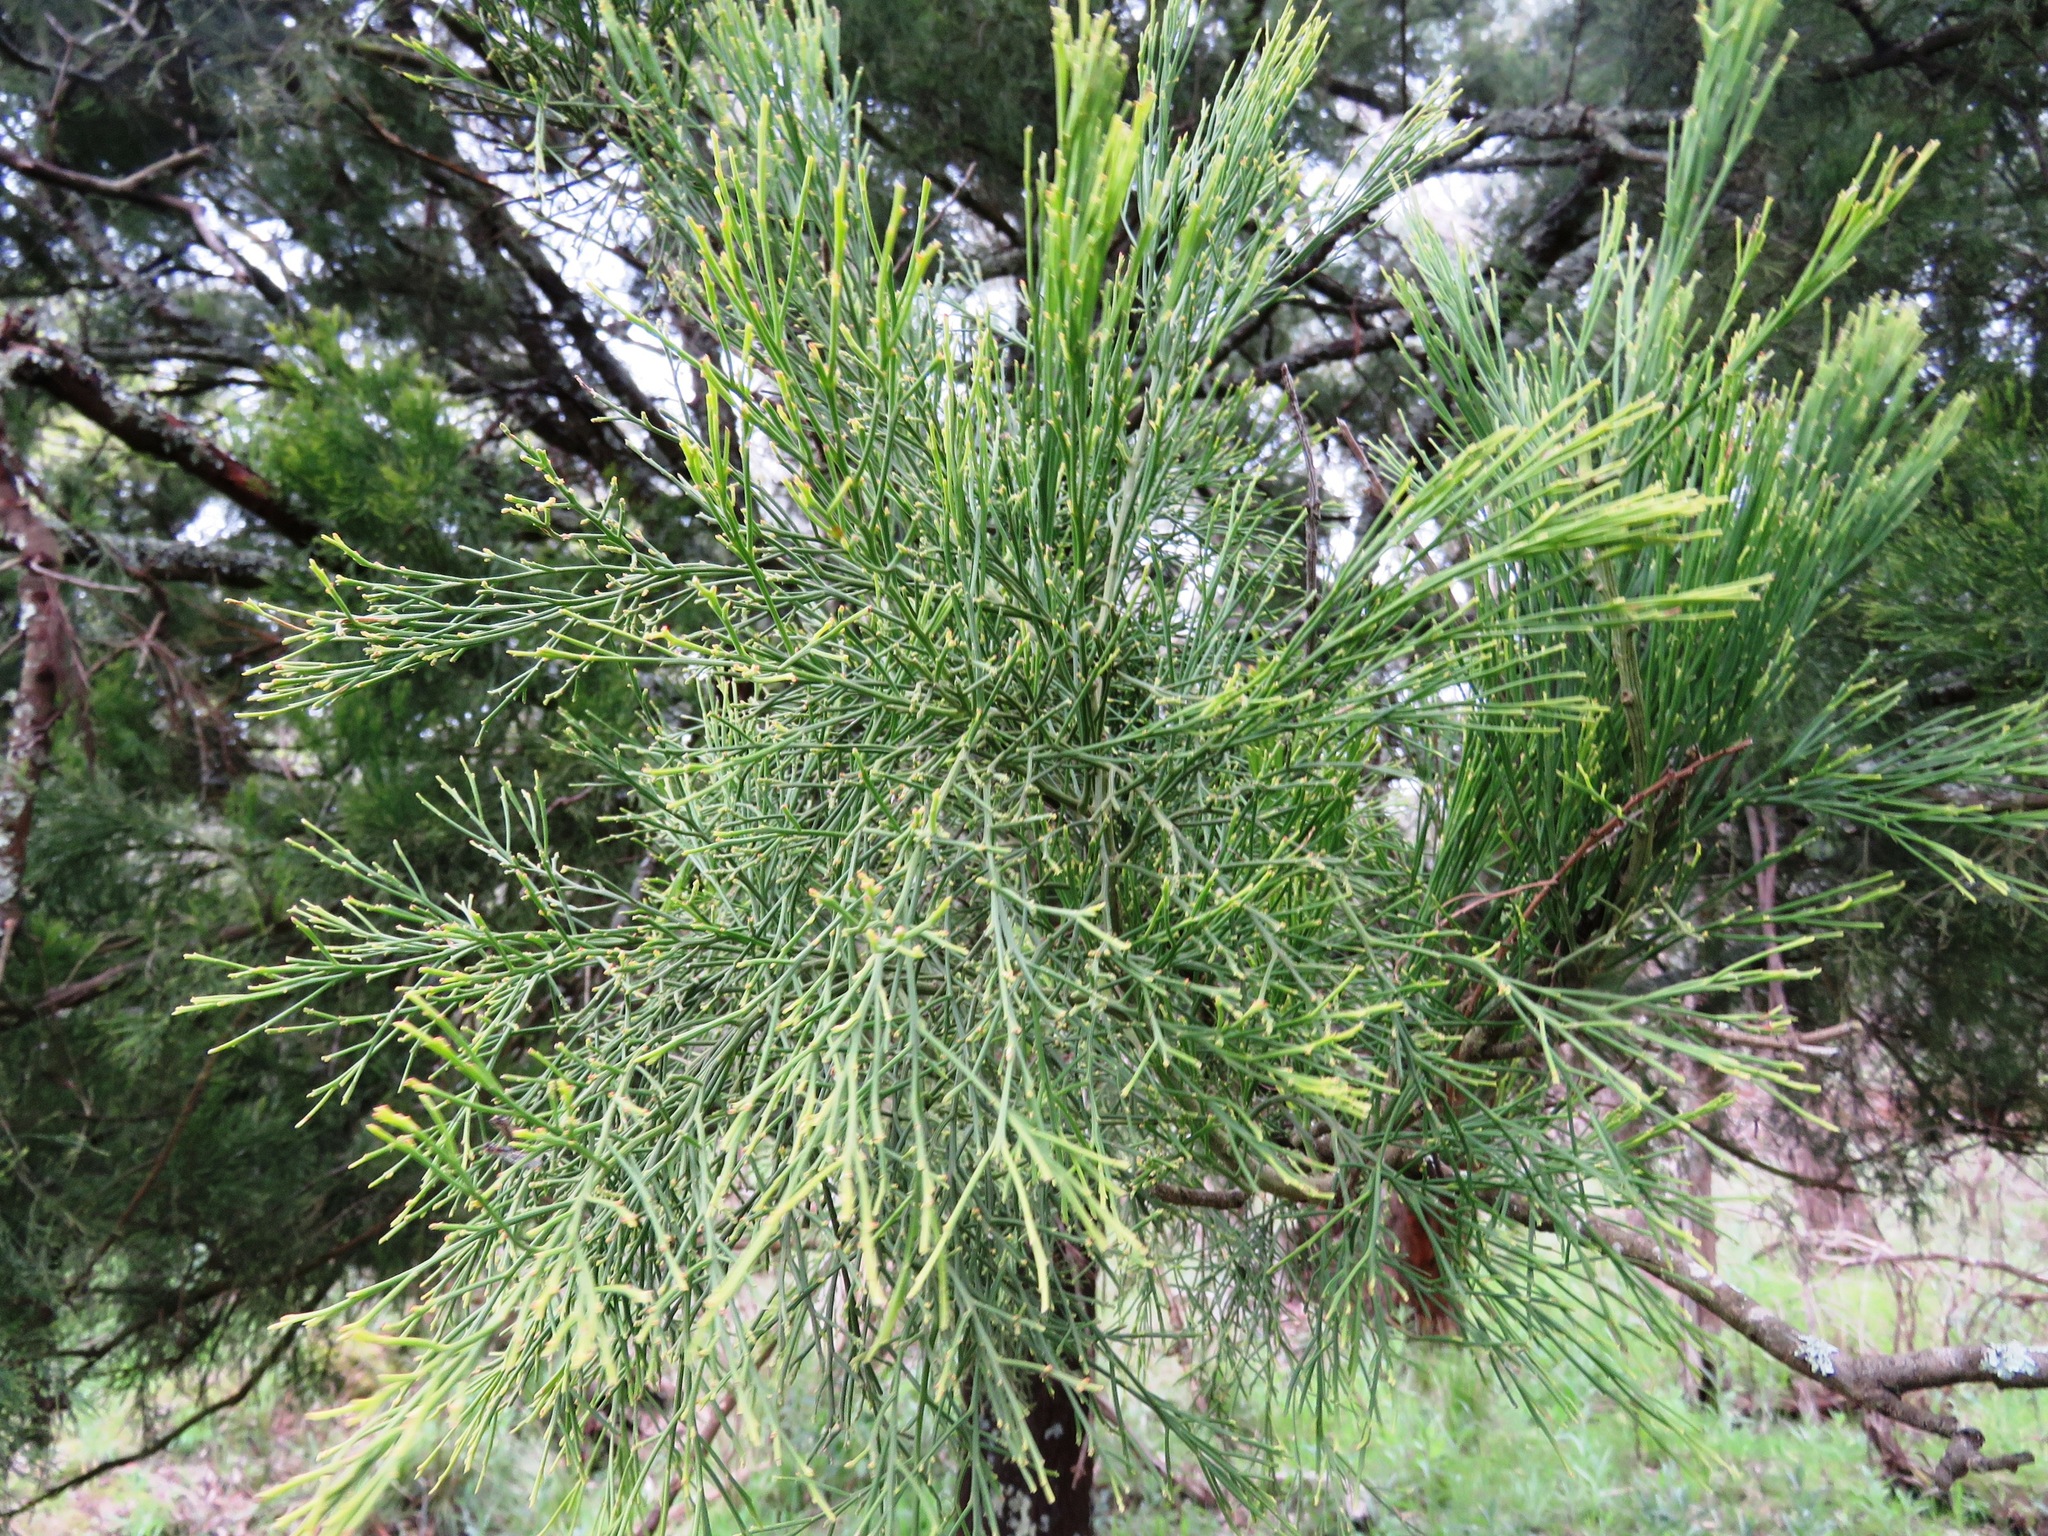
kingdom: Plantae
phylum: Tracheophyta
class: Magnoliopsida
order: Santalales
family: Santalaceae
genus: Exocarpos
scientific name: Exocarpos cupressiformis
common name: Cherry ballart
